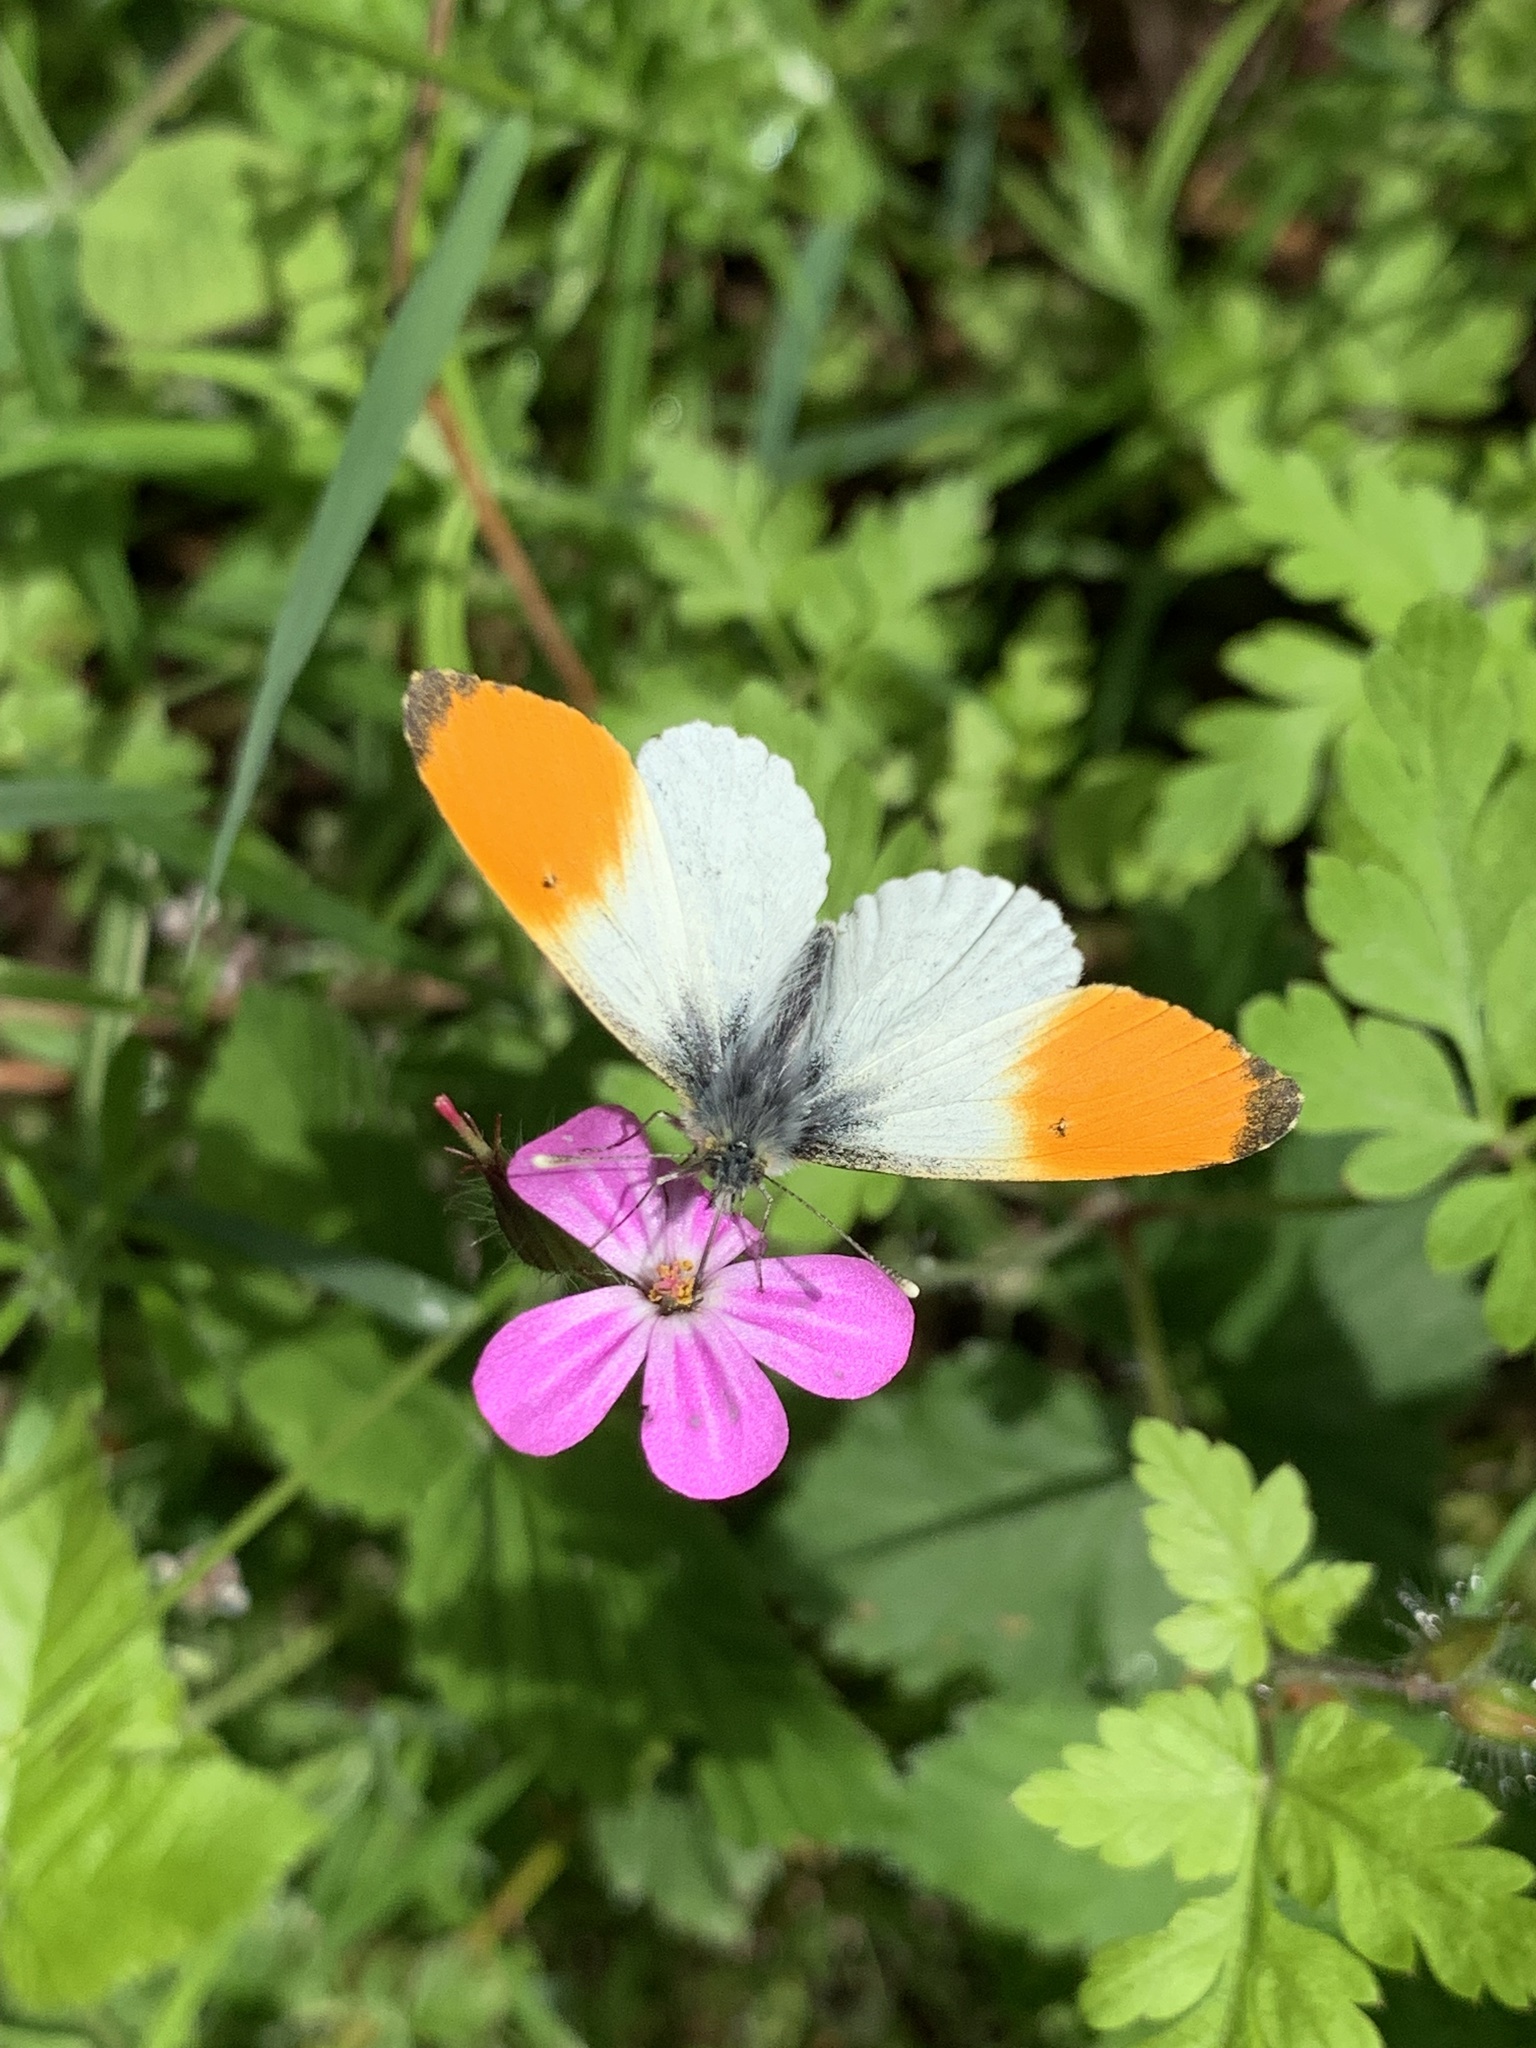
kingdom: Animalia
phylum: Arthropoda
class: Insecta
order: Lepidoptera
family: Pieridae
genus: Anthocharis
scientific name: Anthocharis cardamines
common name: Orange-tip
